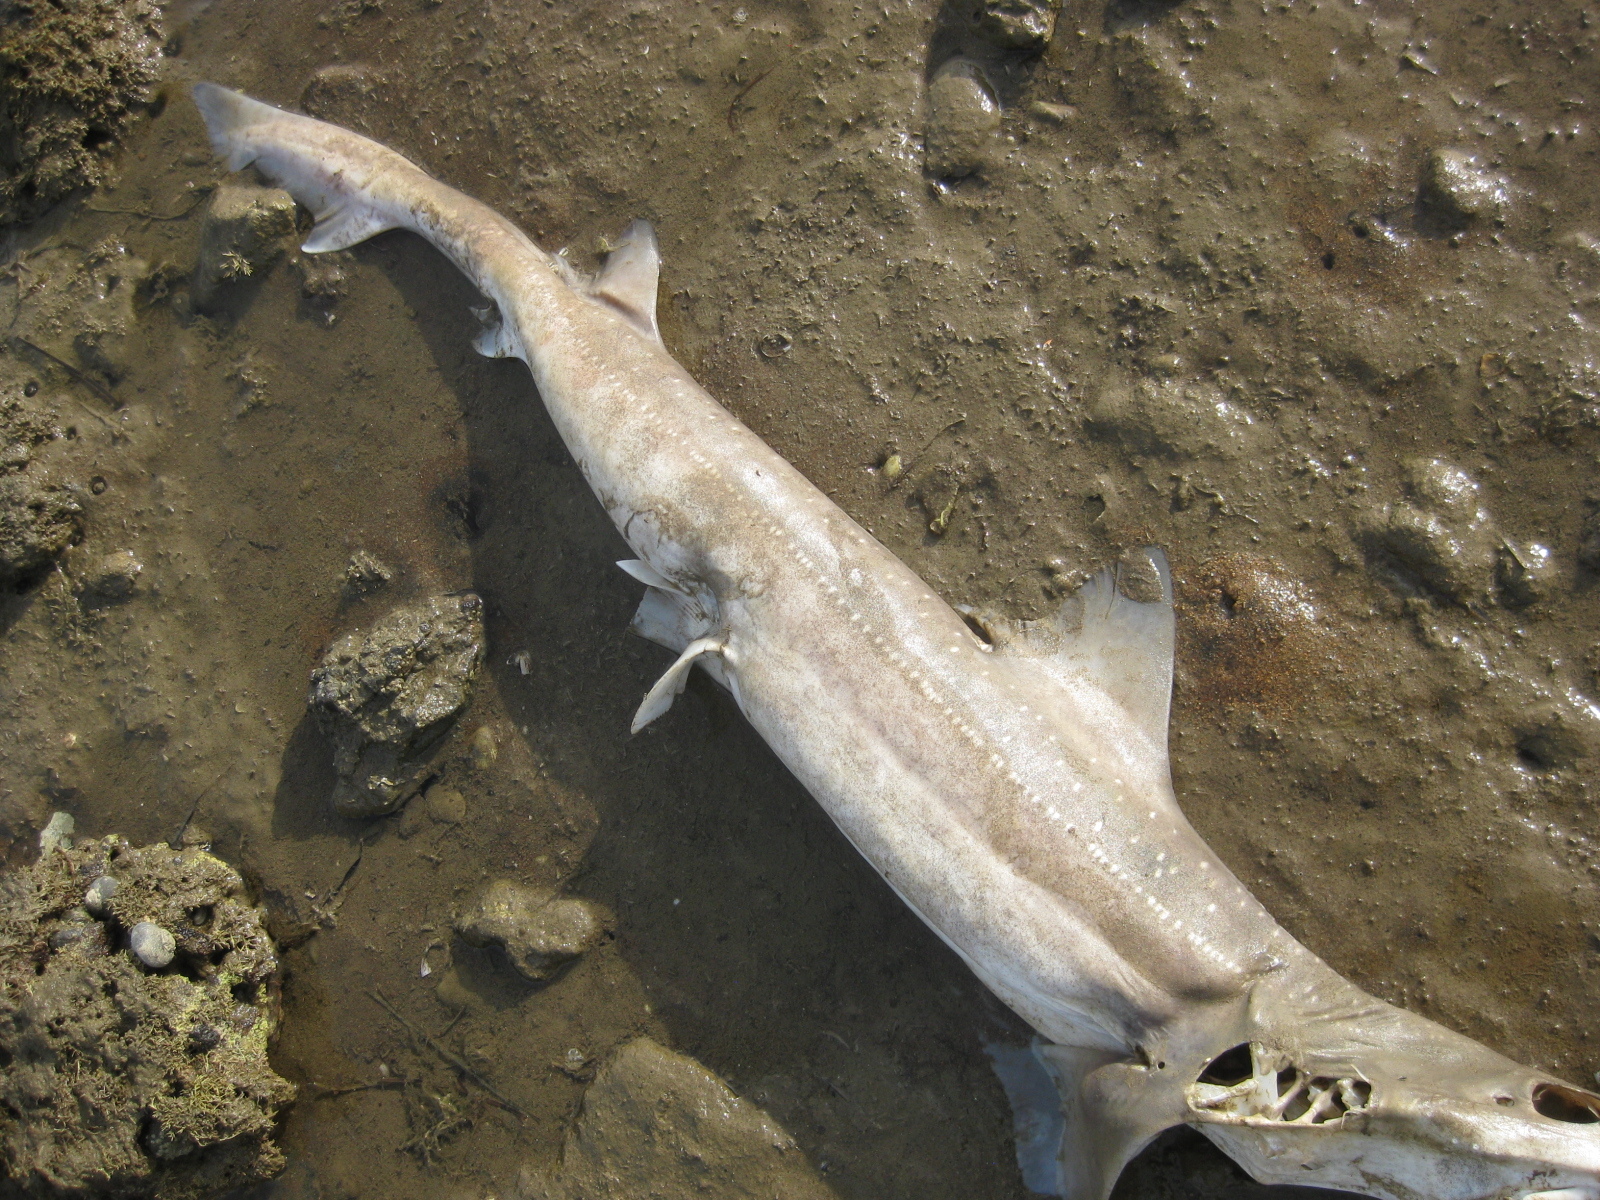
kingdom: Animalia
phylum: Chordata
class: Elasmobranchii
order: Carcharhiniformes
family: Triakidae
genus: Mustelus
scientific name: Mustelus lenticulatus
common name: Gummy shark
